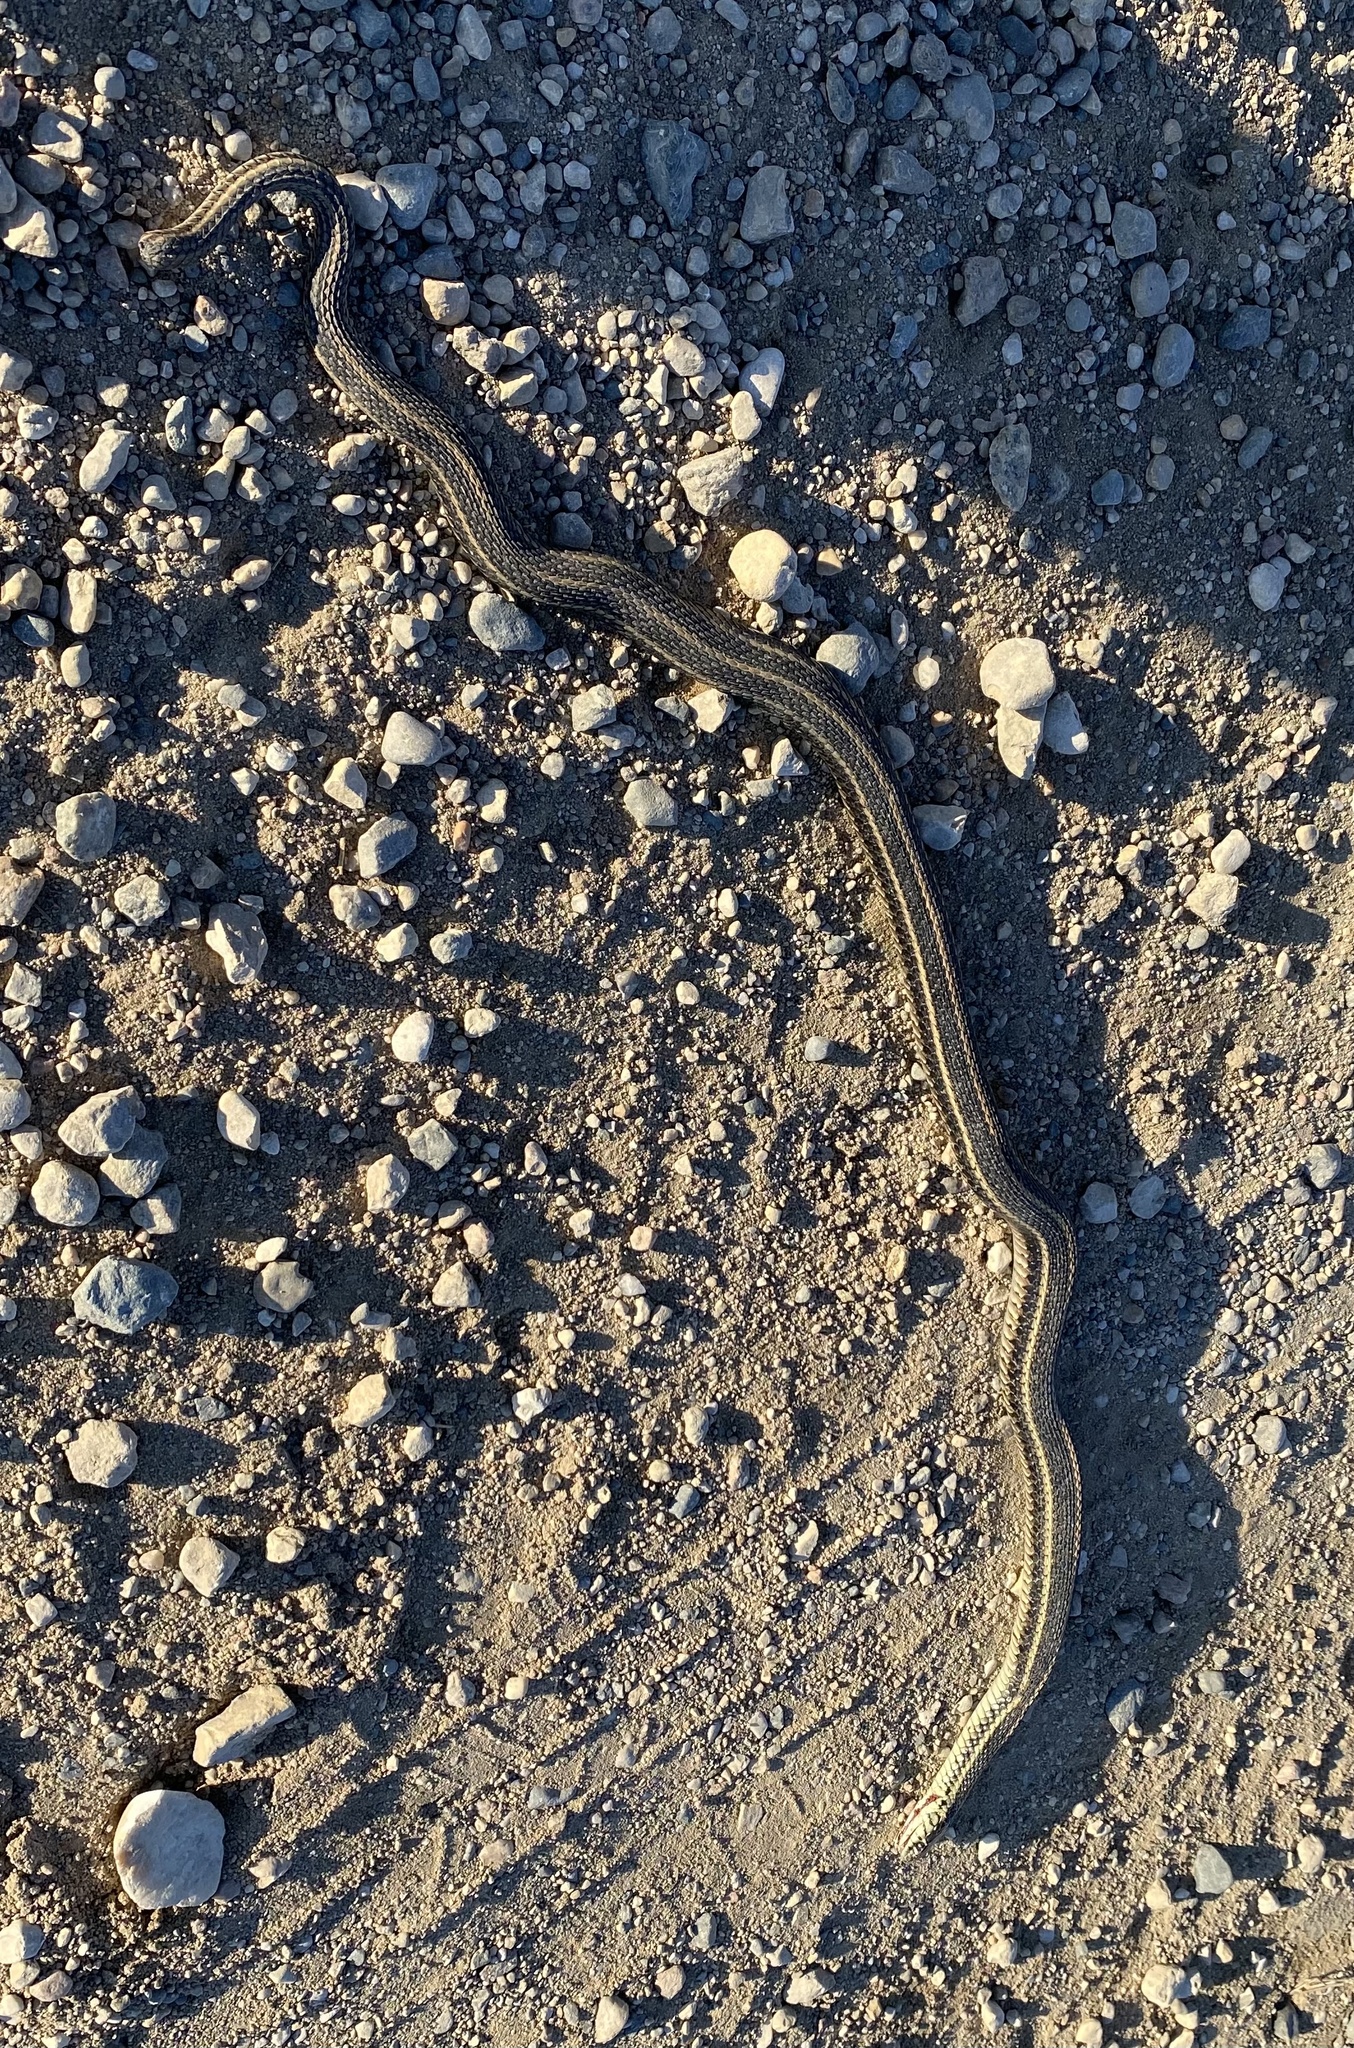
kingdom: Animalia
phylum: Chordata
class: Squamata
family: Colubridae
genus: Thamnophis
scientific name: Thamnophis radix
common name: Plains garter snake
